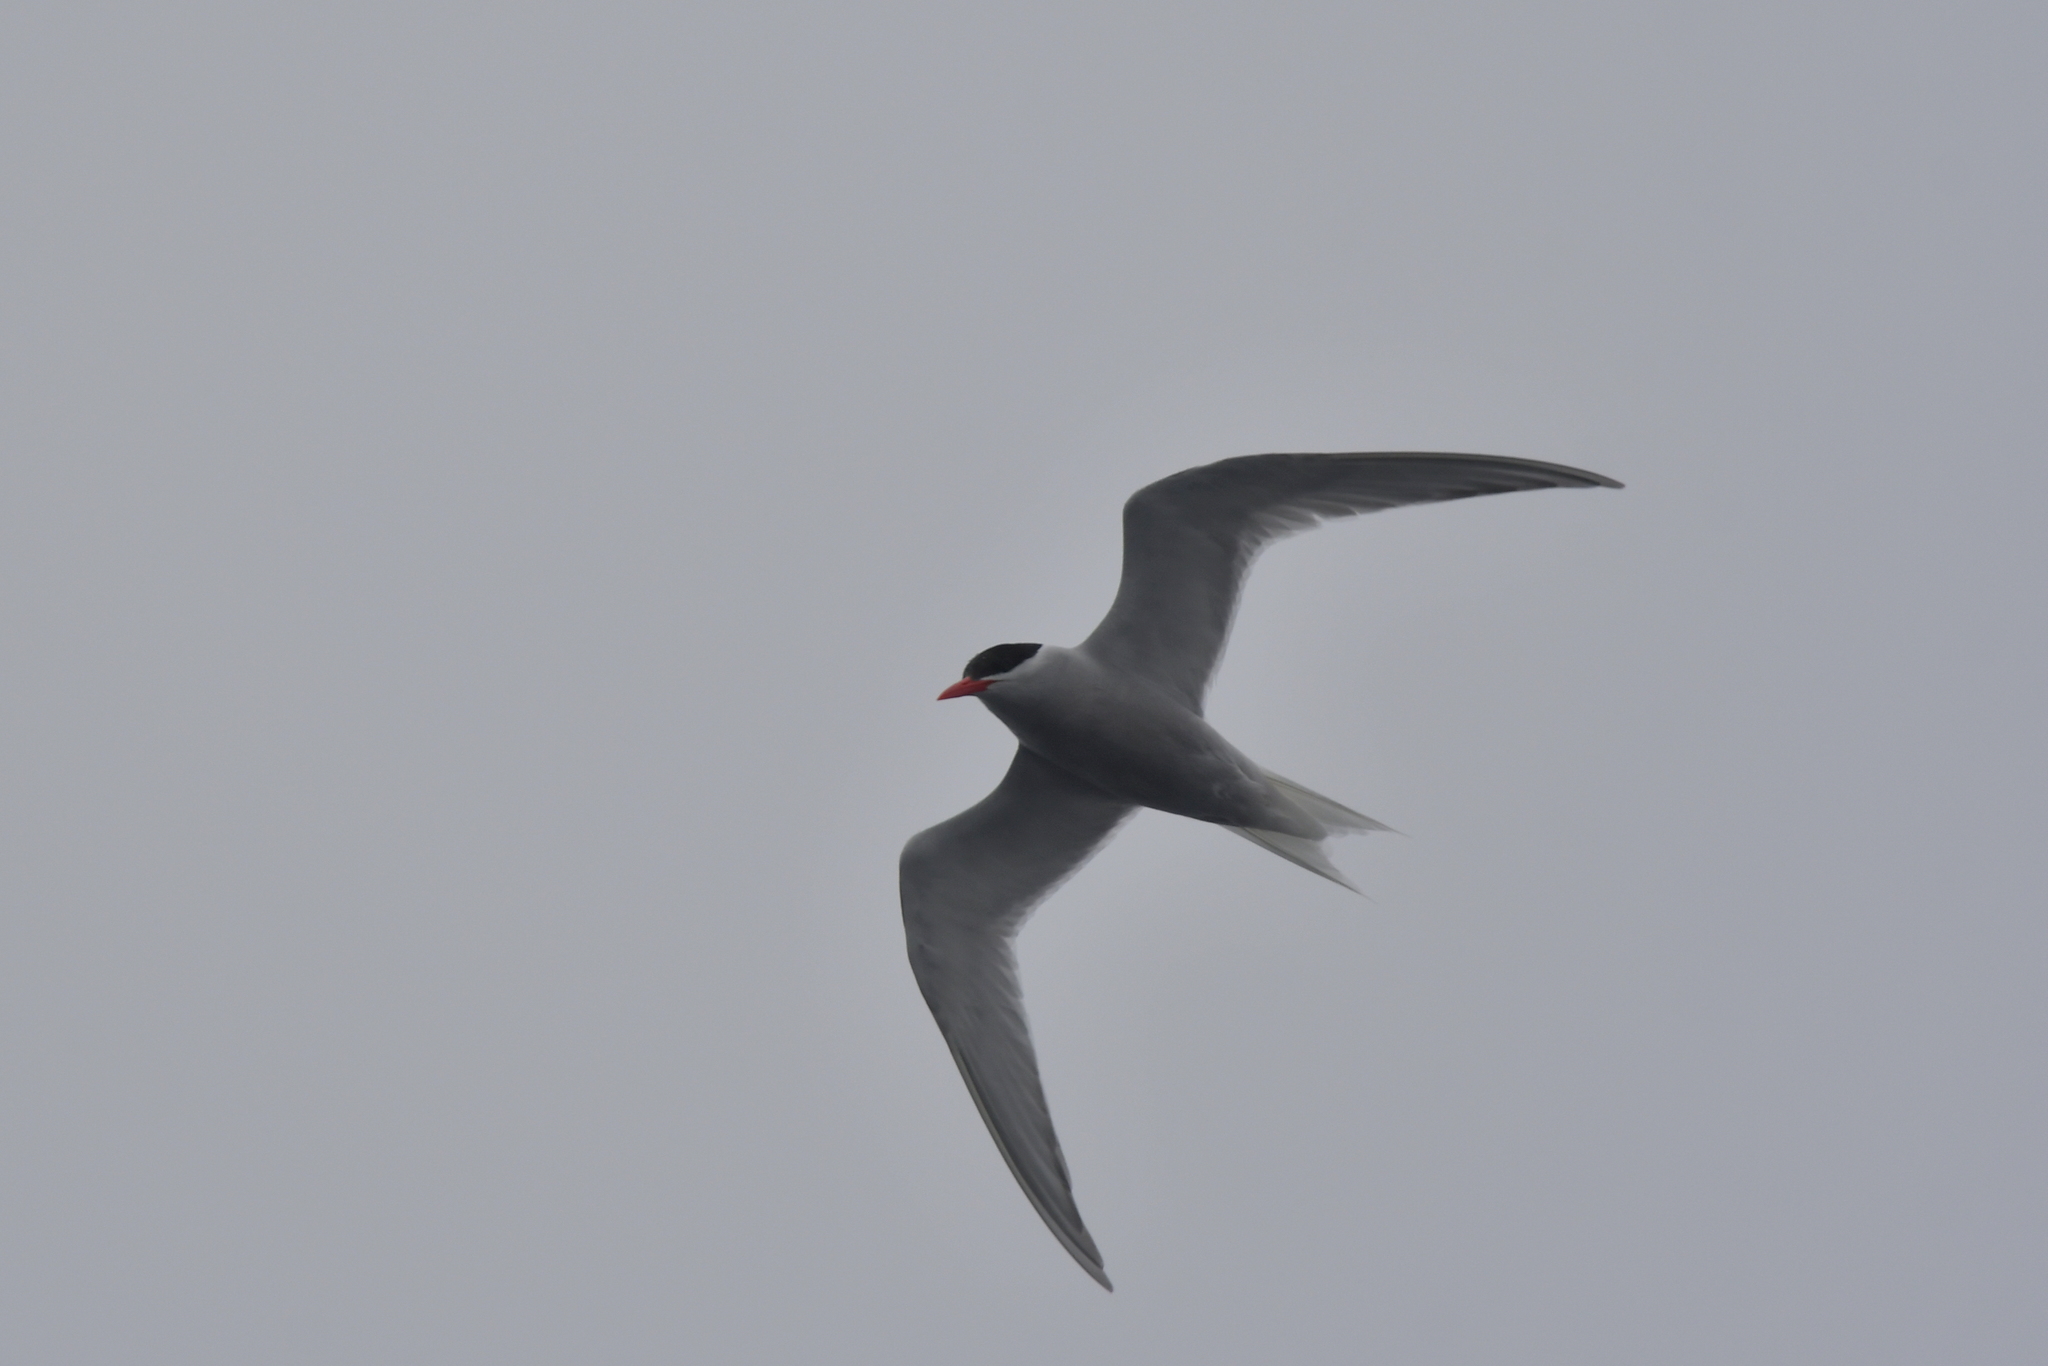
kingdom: Animalia
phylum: Chordata
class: Aves
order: Charadriiformes
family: Laridae
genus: Sterna
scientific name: Sterna vittata
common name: Antarctic tern
